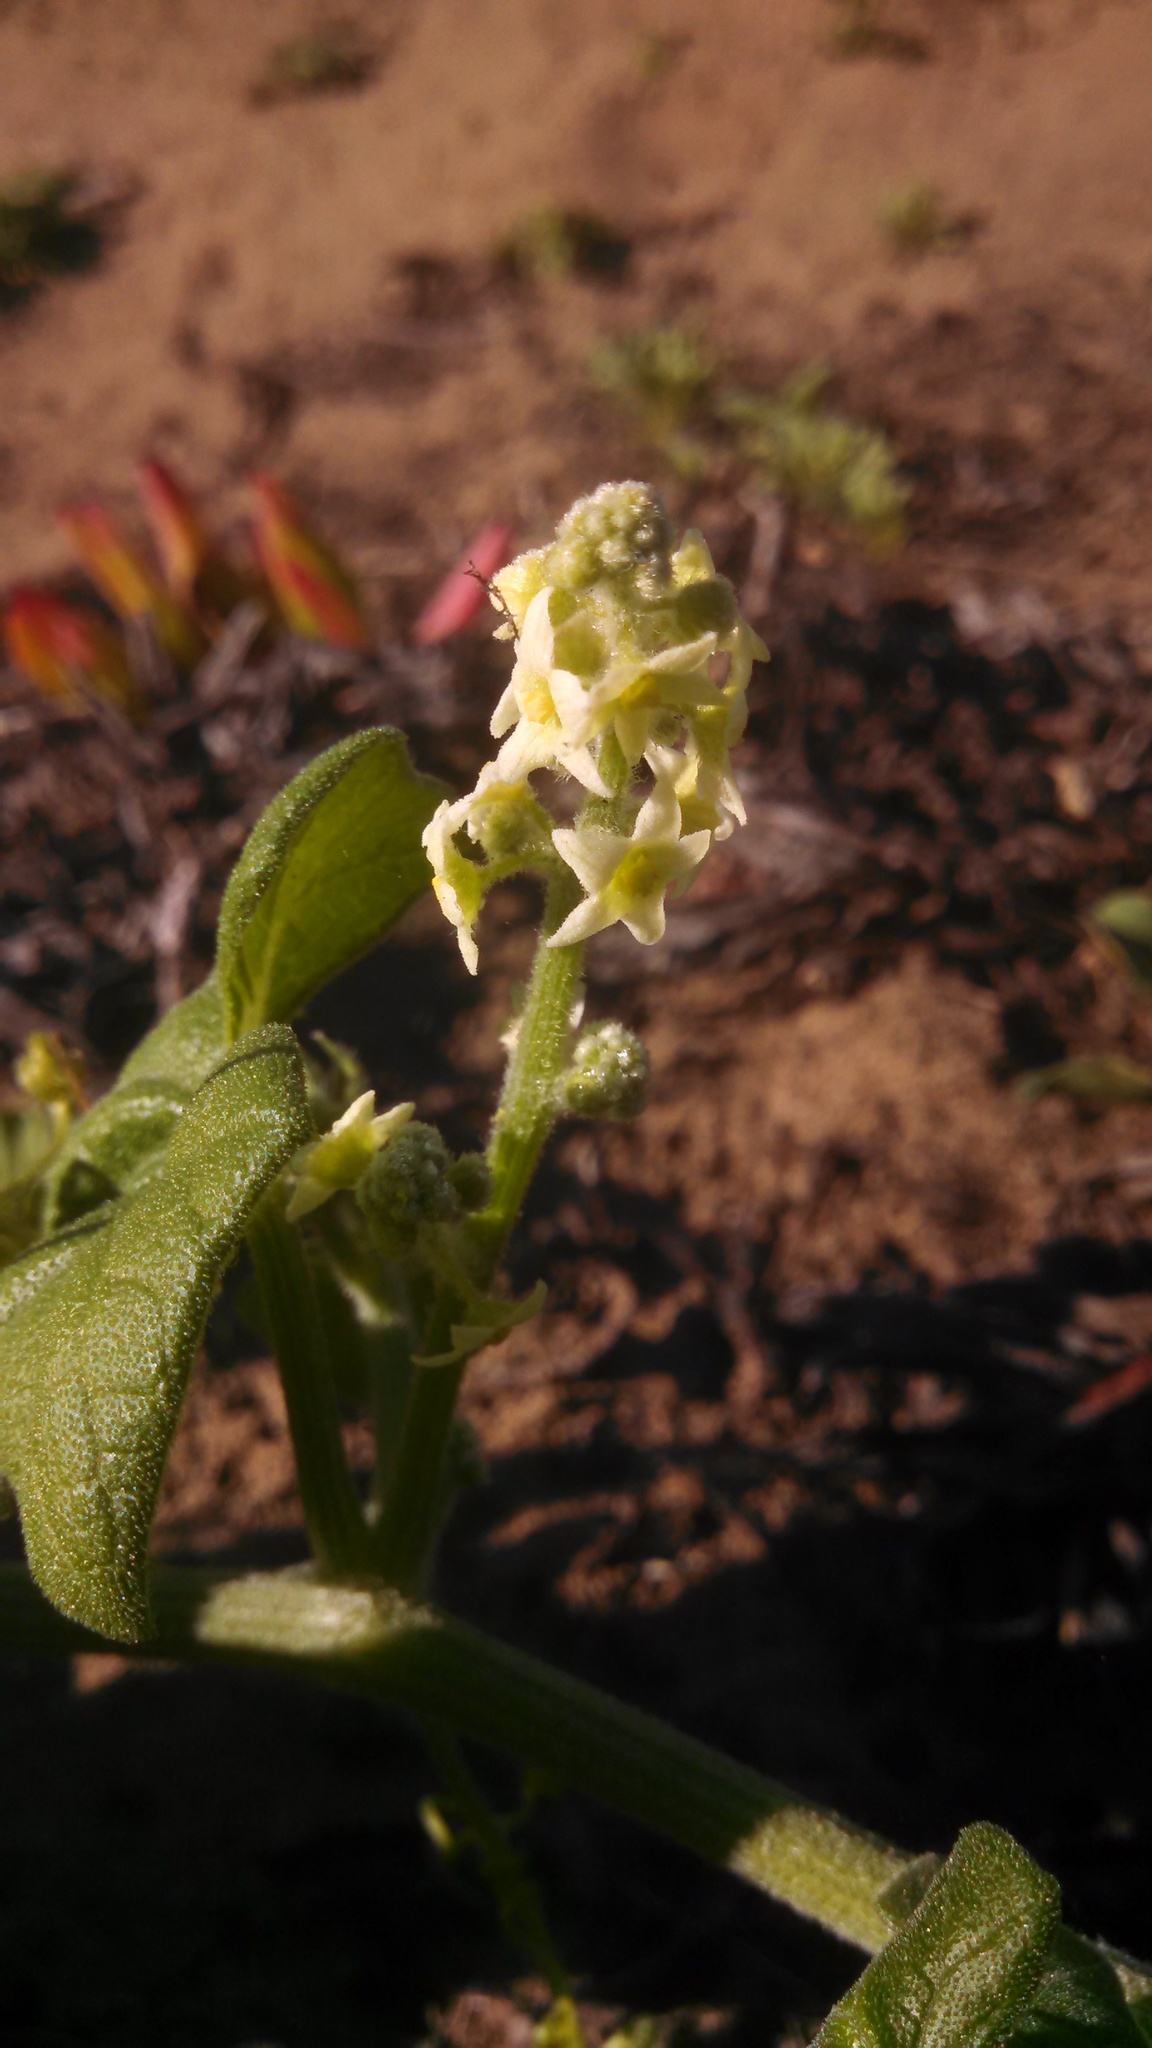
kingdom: Plantae
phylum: Tracheophyta
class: Magnoliopsida
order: Cucurbitales
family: Cucurbitaceae
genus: Marah
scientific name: Marah fabacea
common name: California manroot
